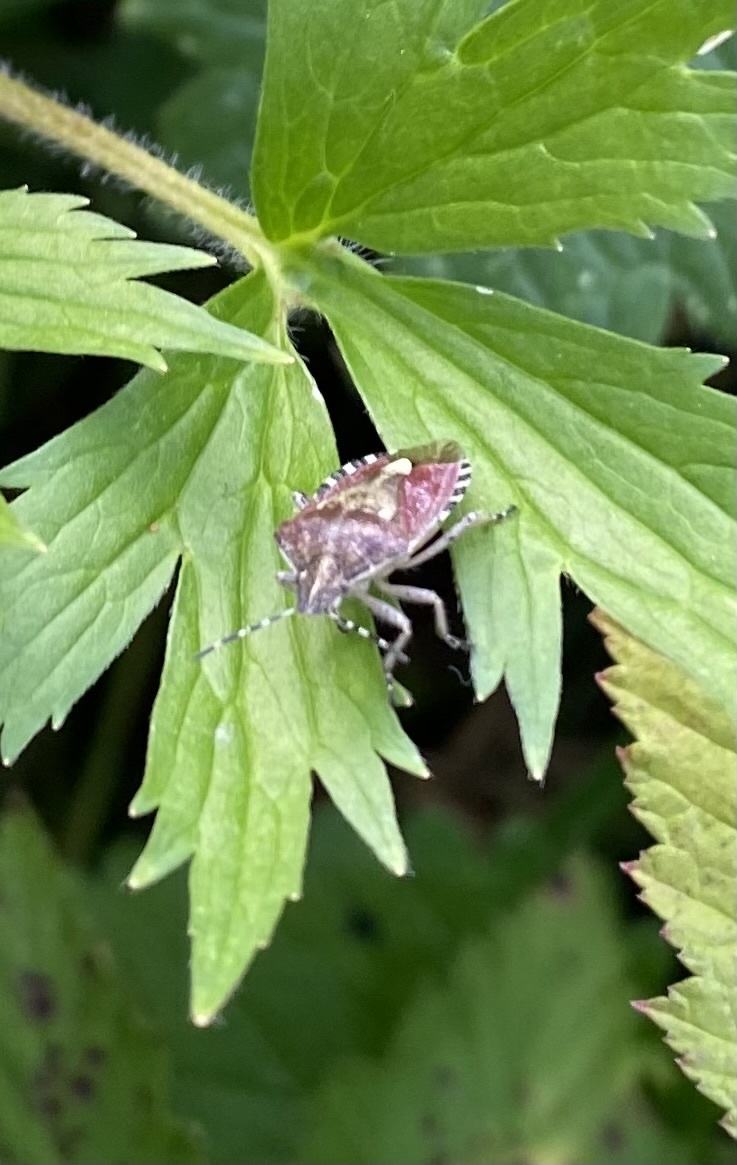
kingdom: Animalia
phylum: Arthropoda
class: Insecta
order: Hemiptera
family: Pentatomidae
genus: Dolycoris
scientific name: Dolycoris baccarum
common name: Sloe bug
